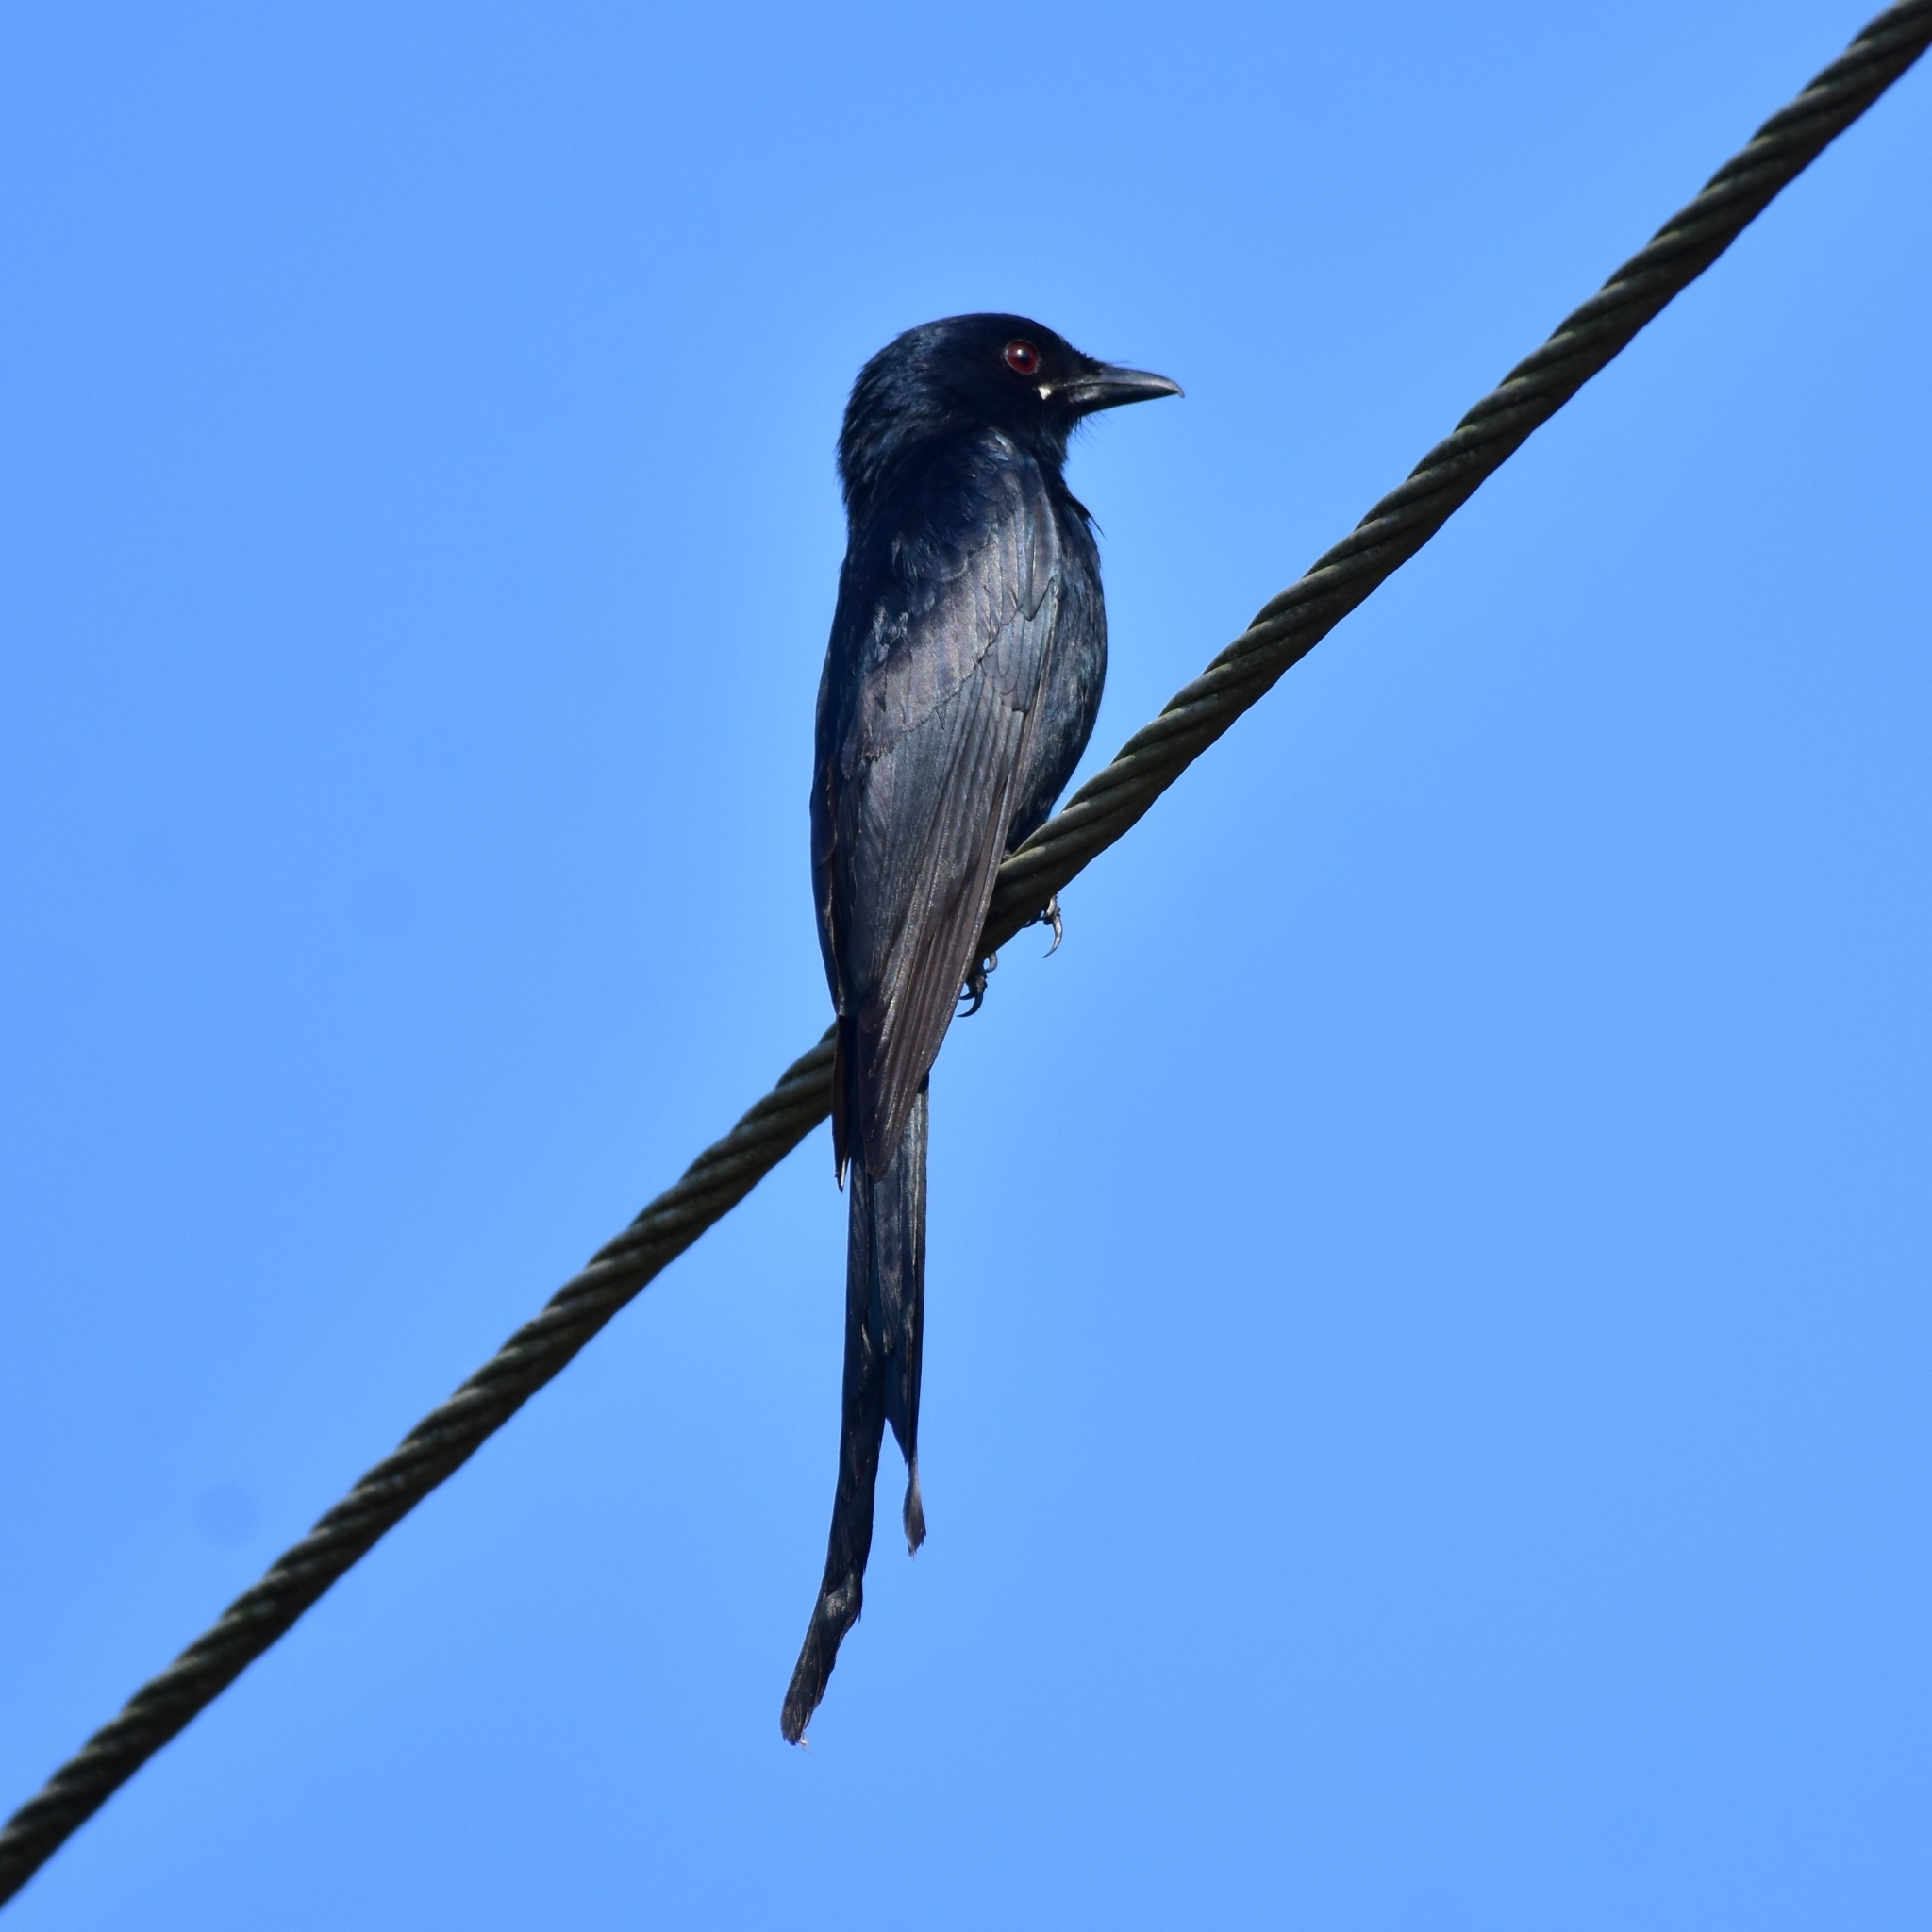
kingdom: Animalia
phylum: Chordata
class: Aves
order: Passeriformes
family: Dicruridae
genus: Dicrurus
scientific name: Dicrurus macrocercus
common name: Black drongo
